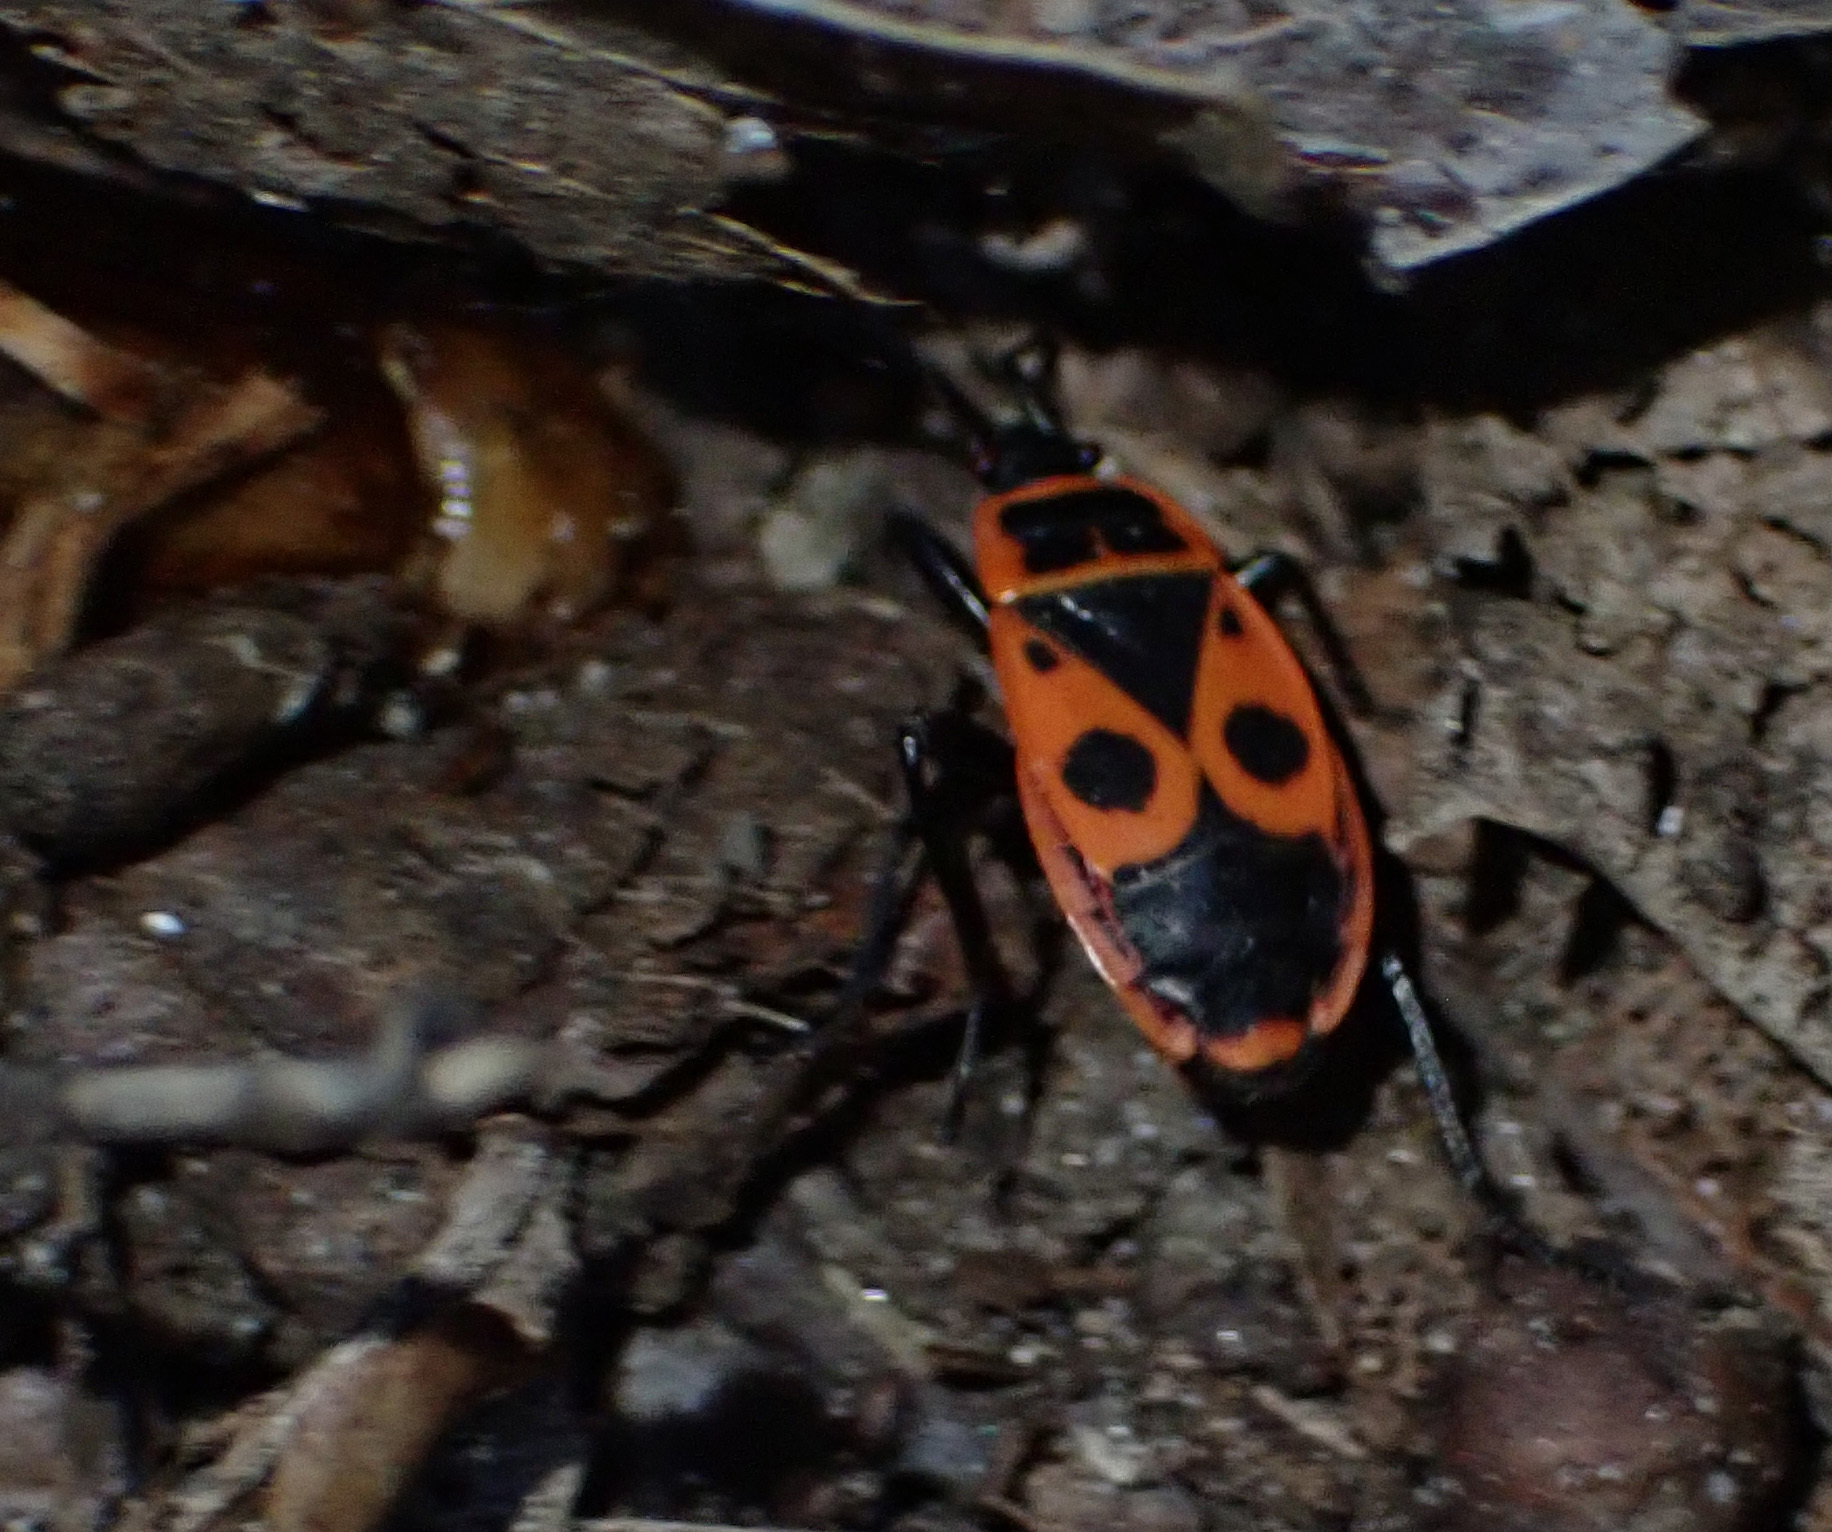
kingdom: Animalia
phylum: Arthropoda
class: Insecta
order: Hemiptera
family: Pyrrhocoridae
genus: Pyrrhocoris
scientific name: Pyrrhocoris apterus
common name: Firebug
